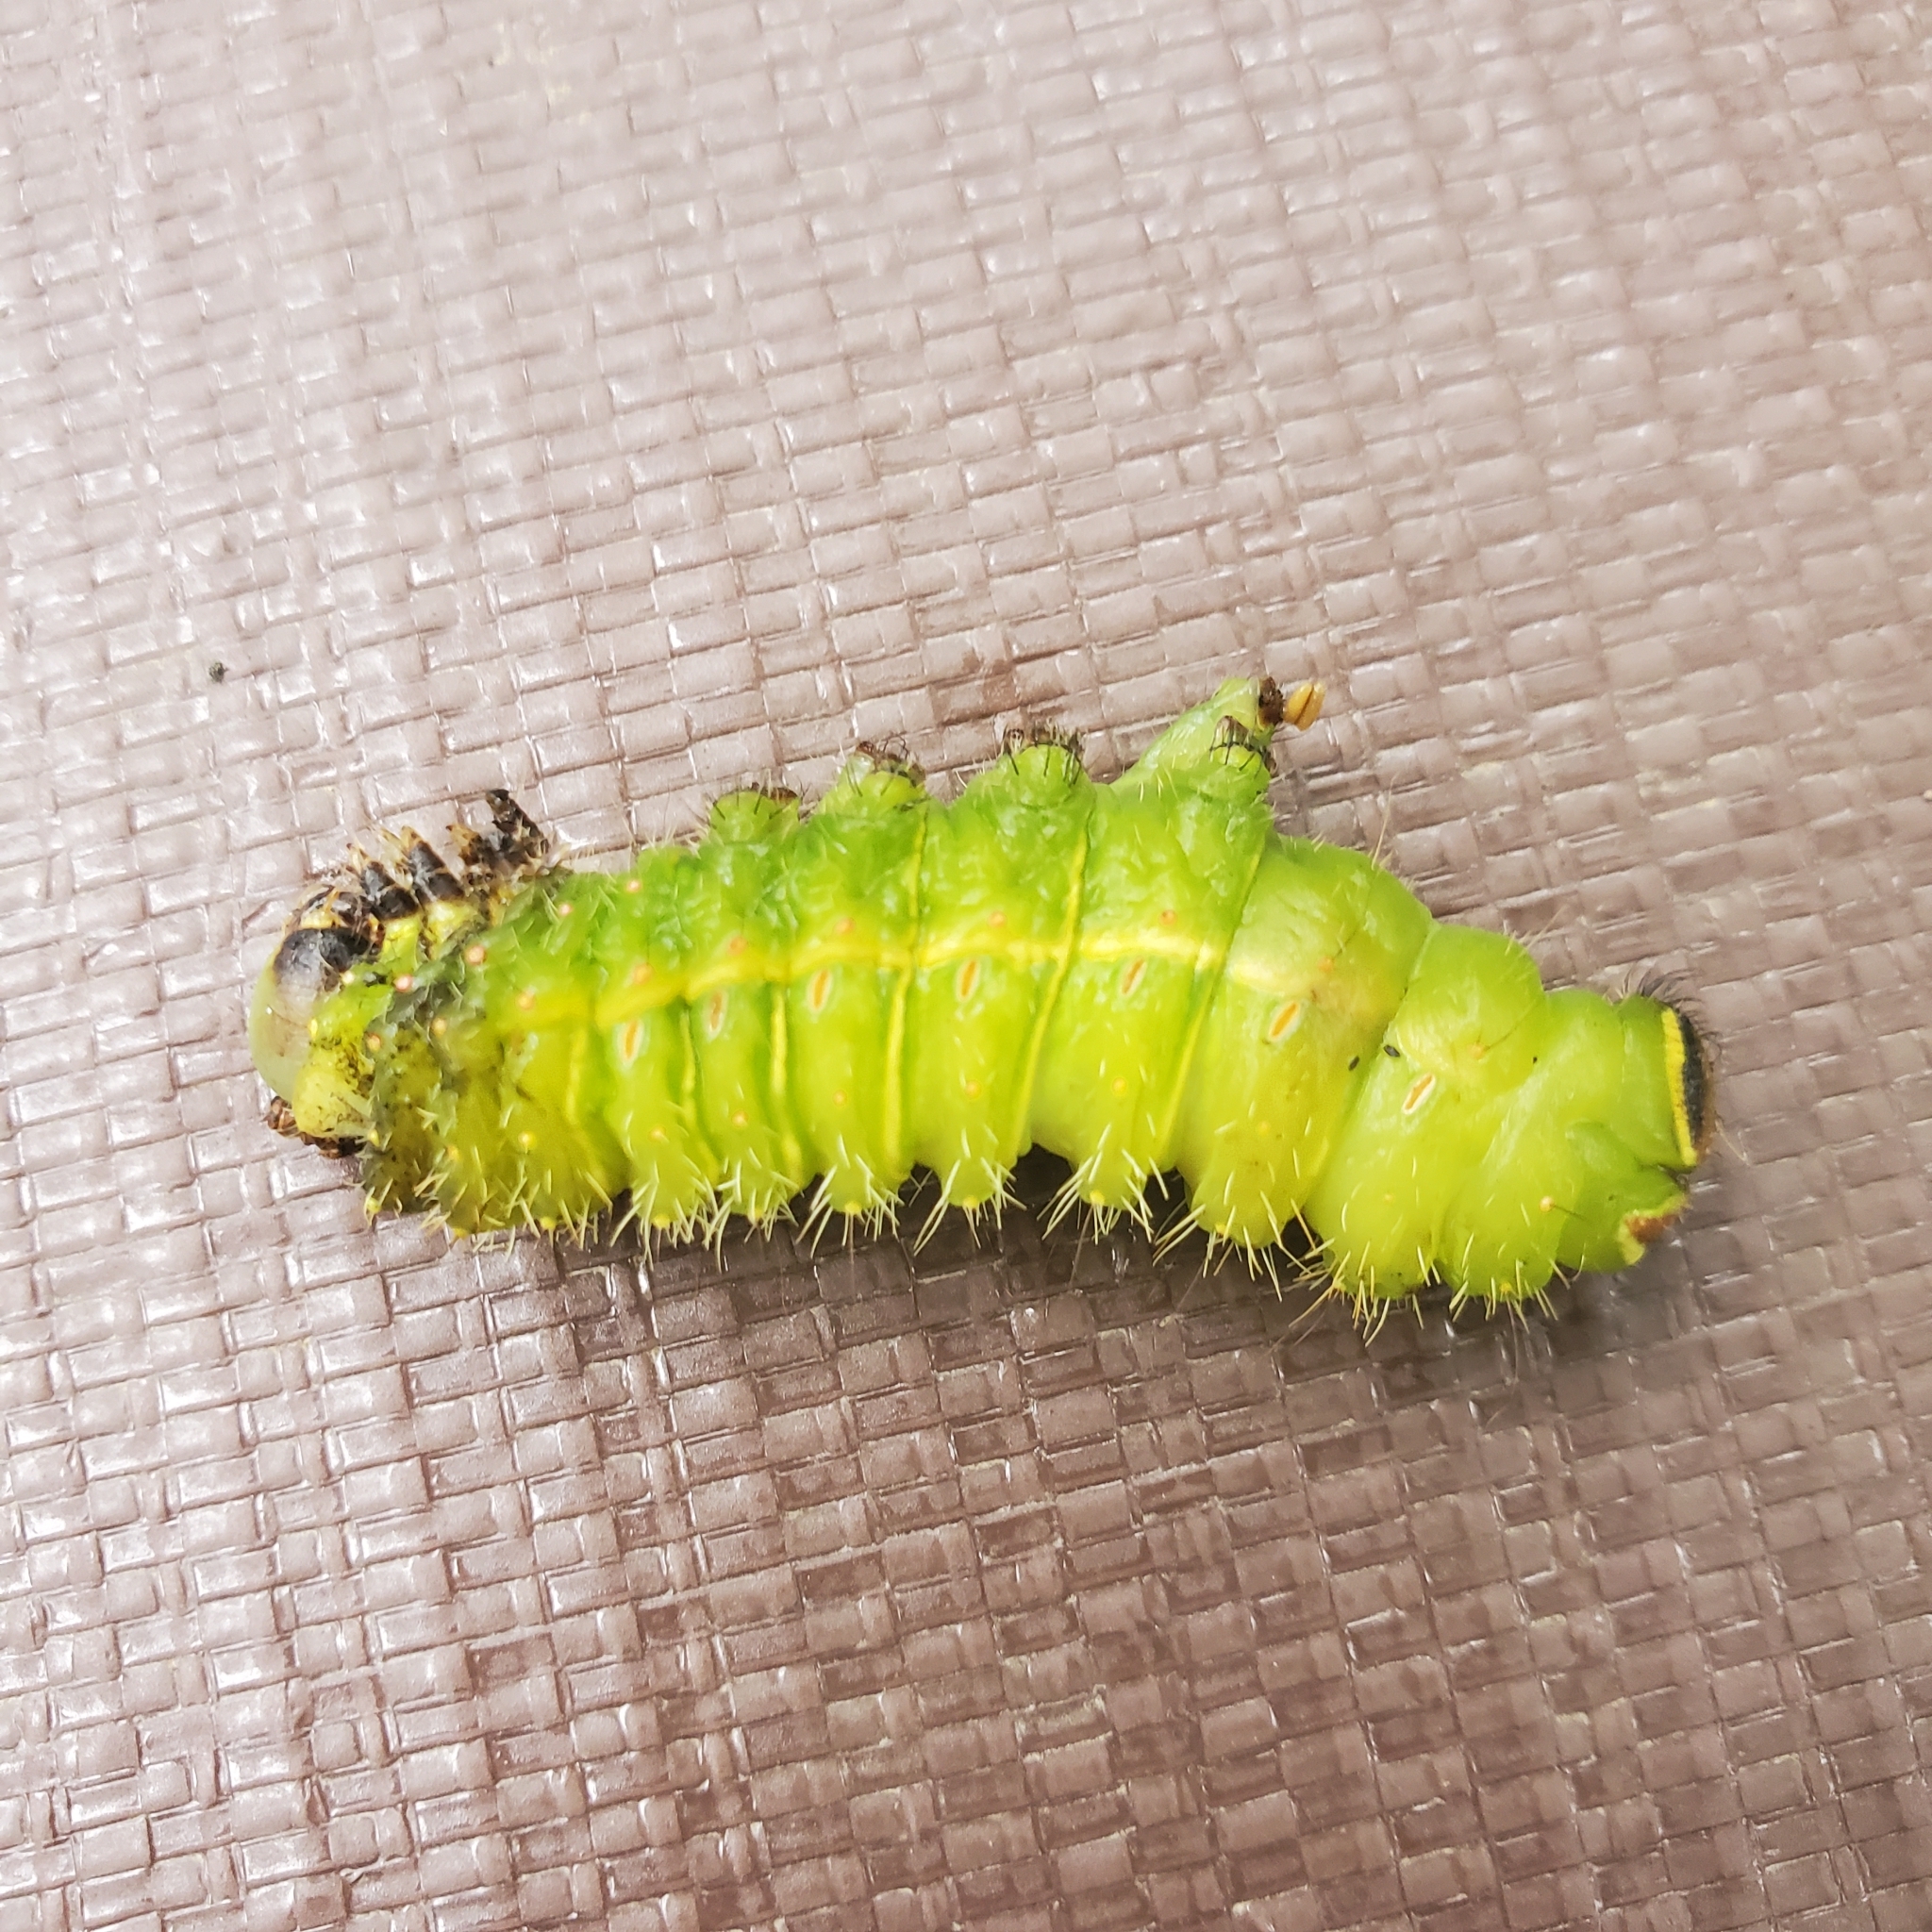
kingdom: Animalia
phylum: Arthropoda
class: Insecta
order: Lepidoptera
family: Saturniidae
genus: Actias
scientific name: Actias luna
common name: Luna moth
